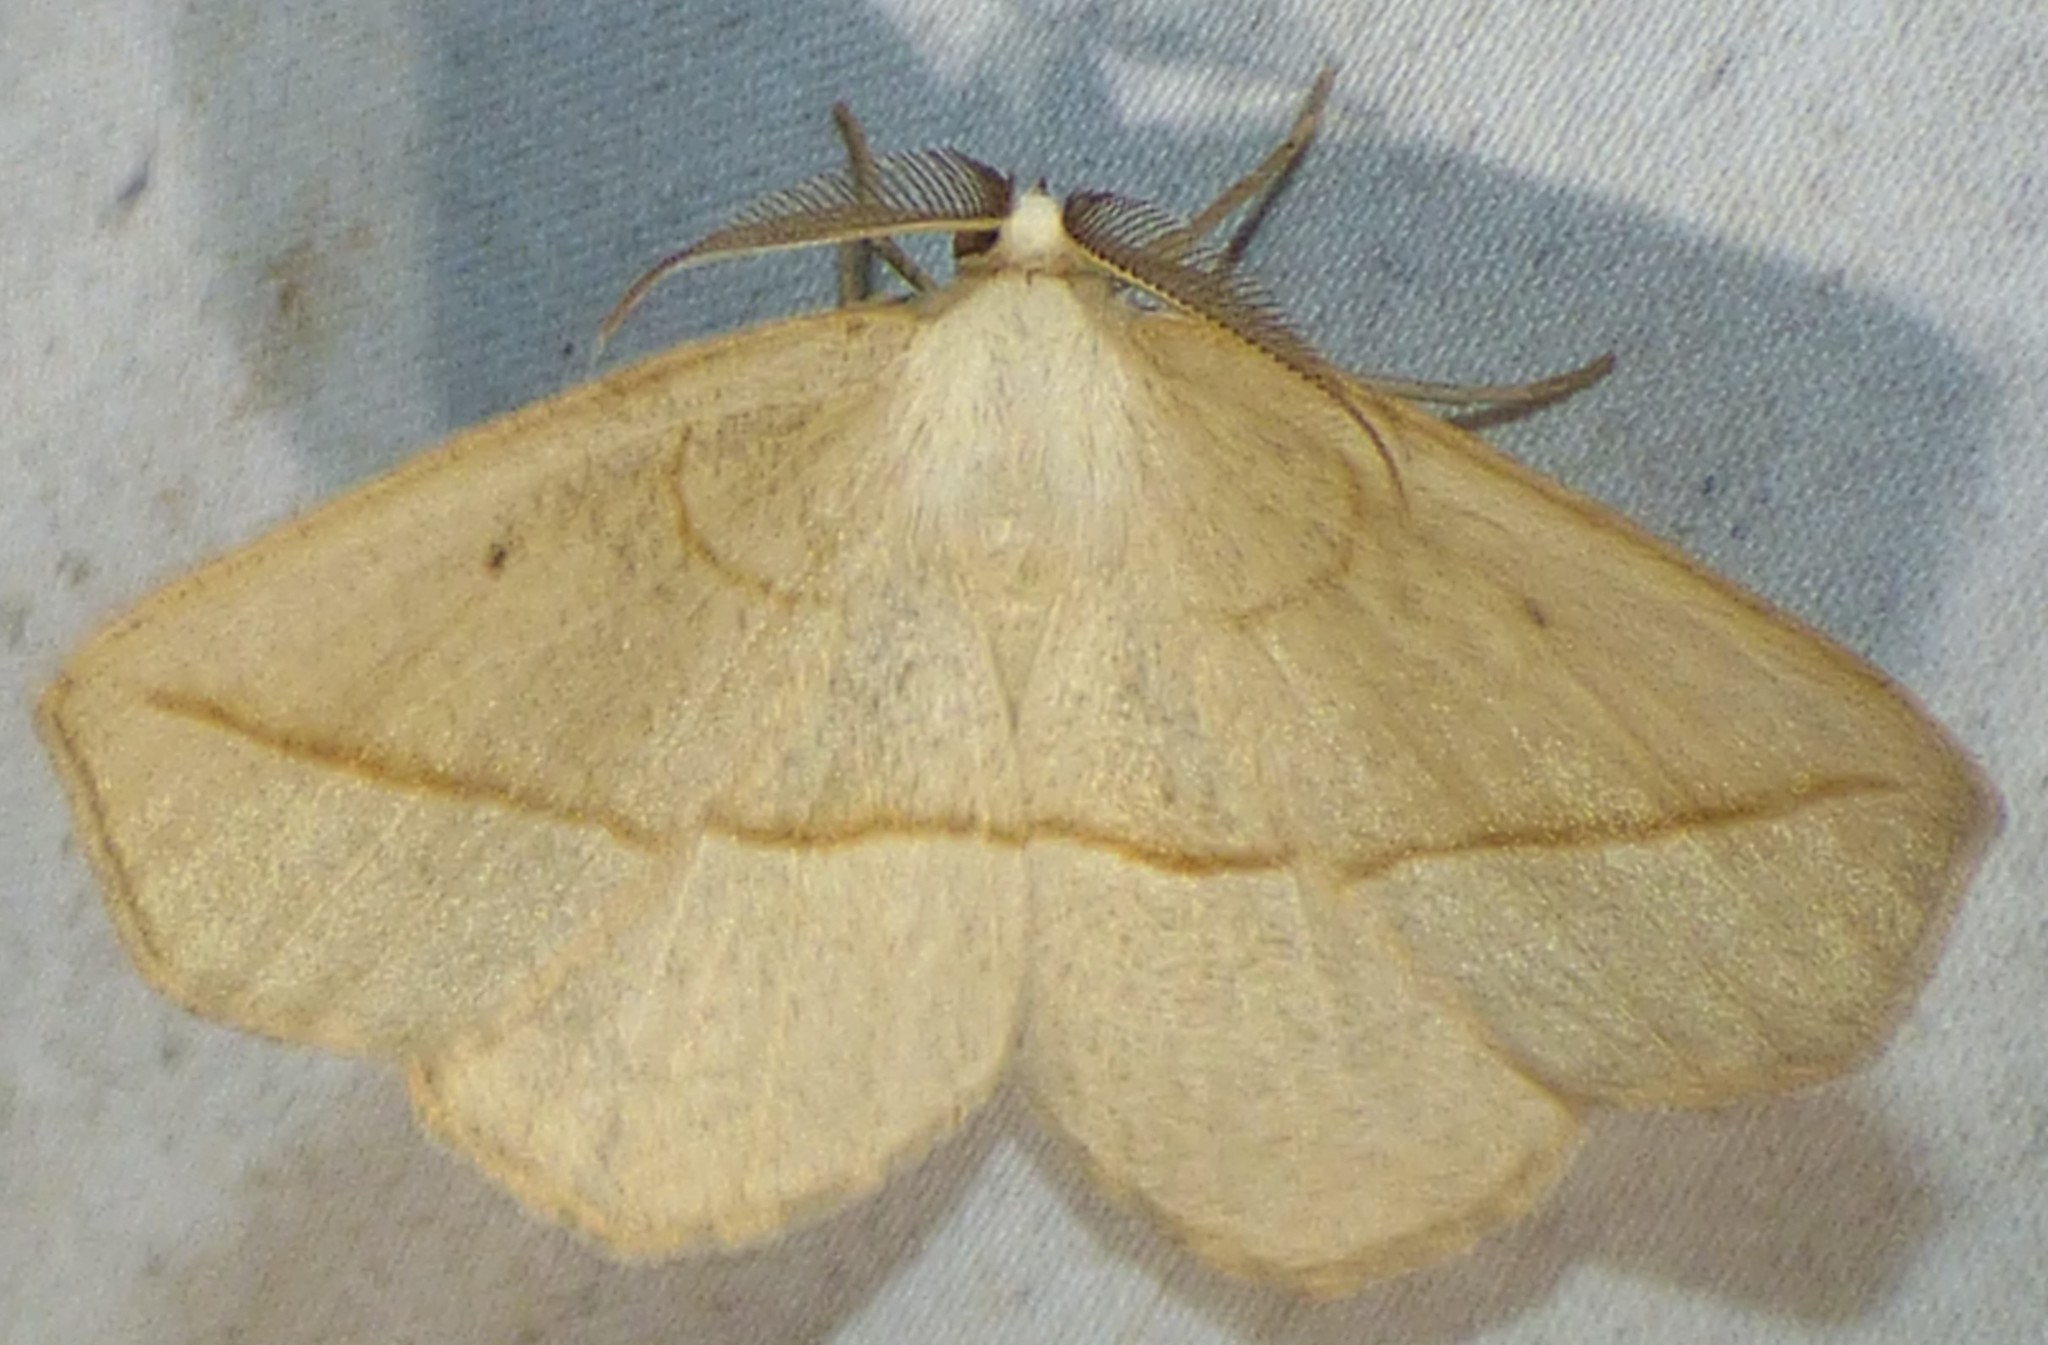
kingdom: Animalia
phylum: Arthropoda
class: Insecta
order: Lepidoptera
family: Geometridae
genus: Eusarca
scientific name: Eusarca confusaria
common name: Confused eusarca
